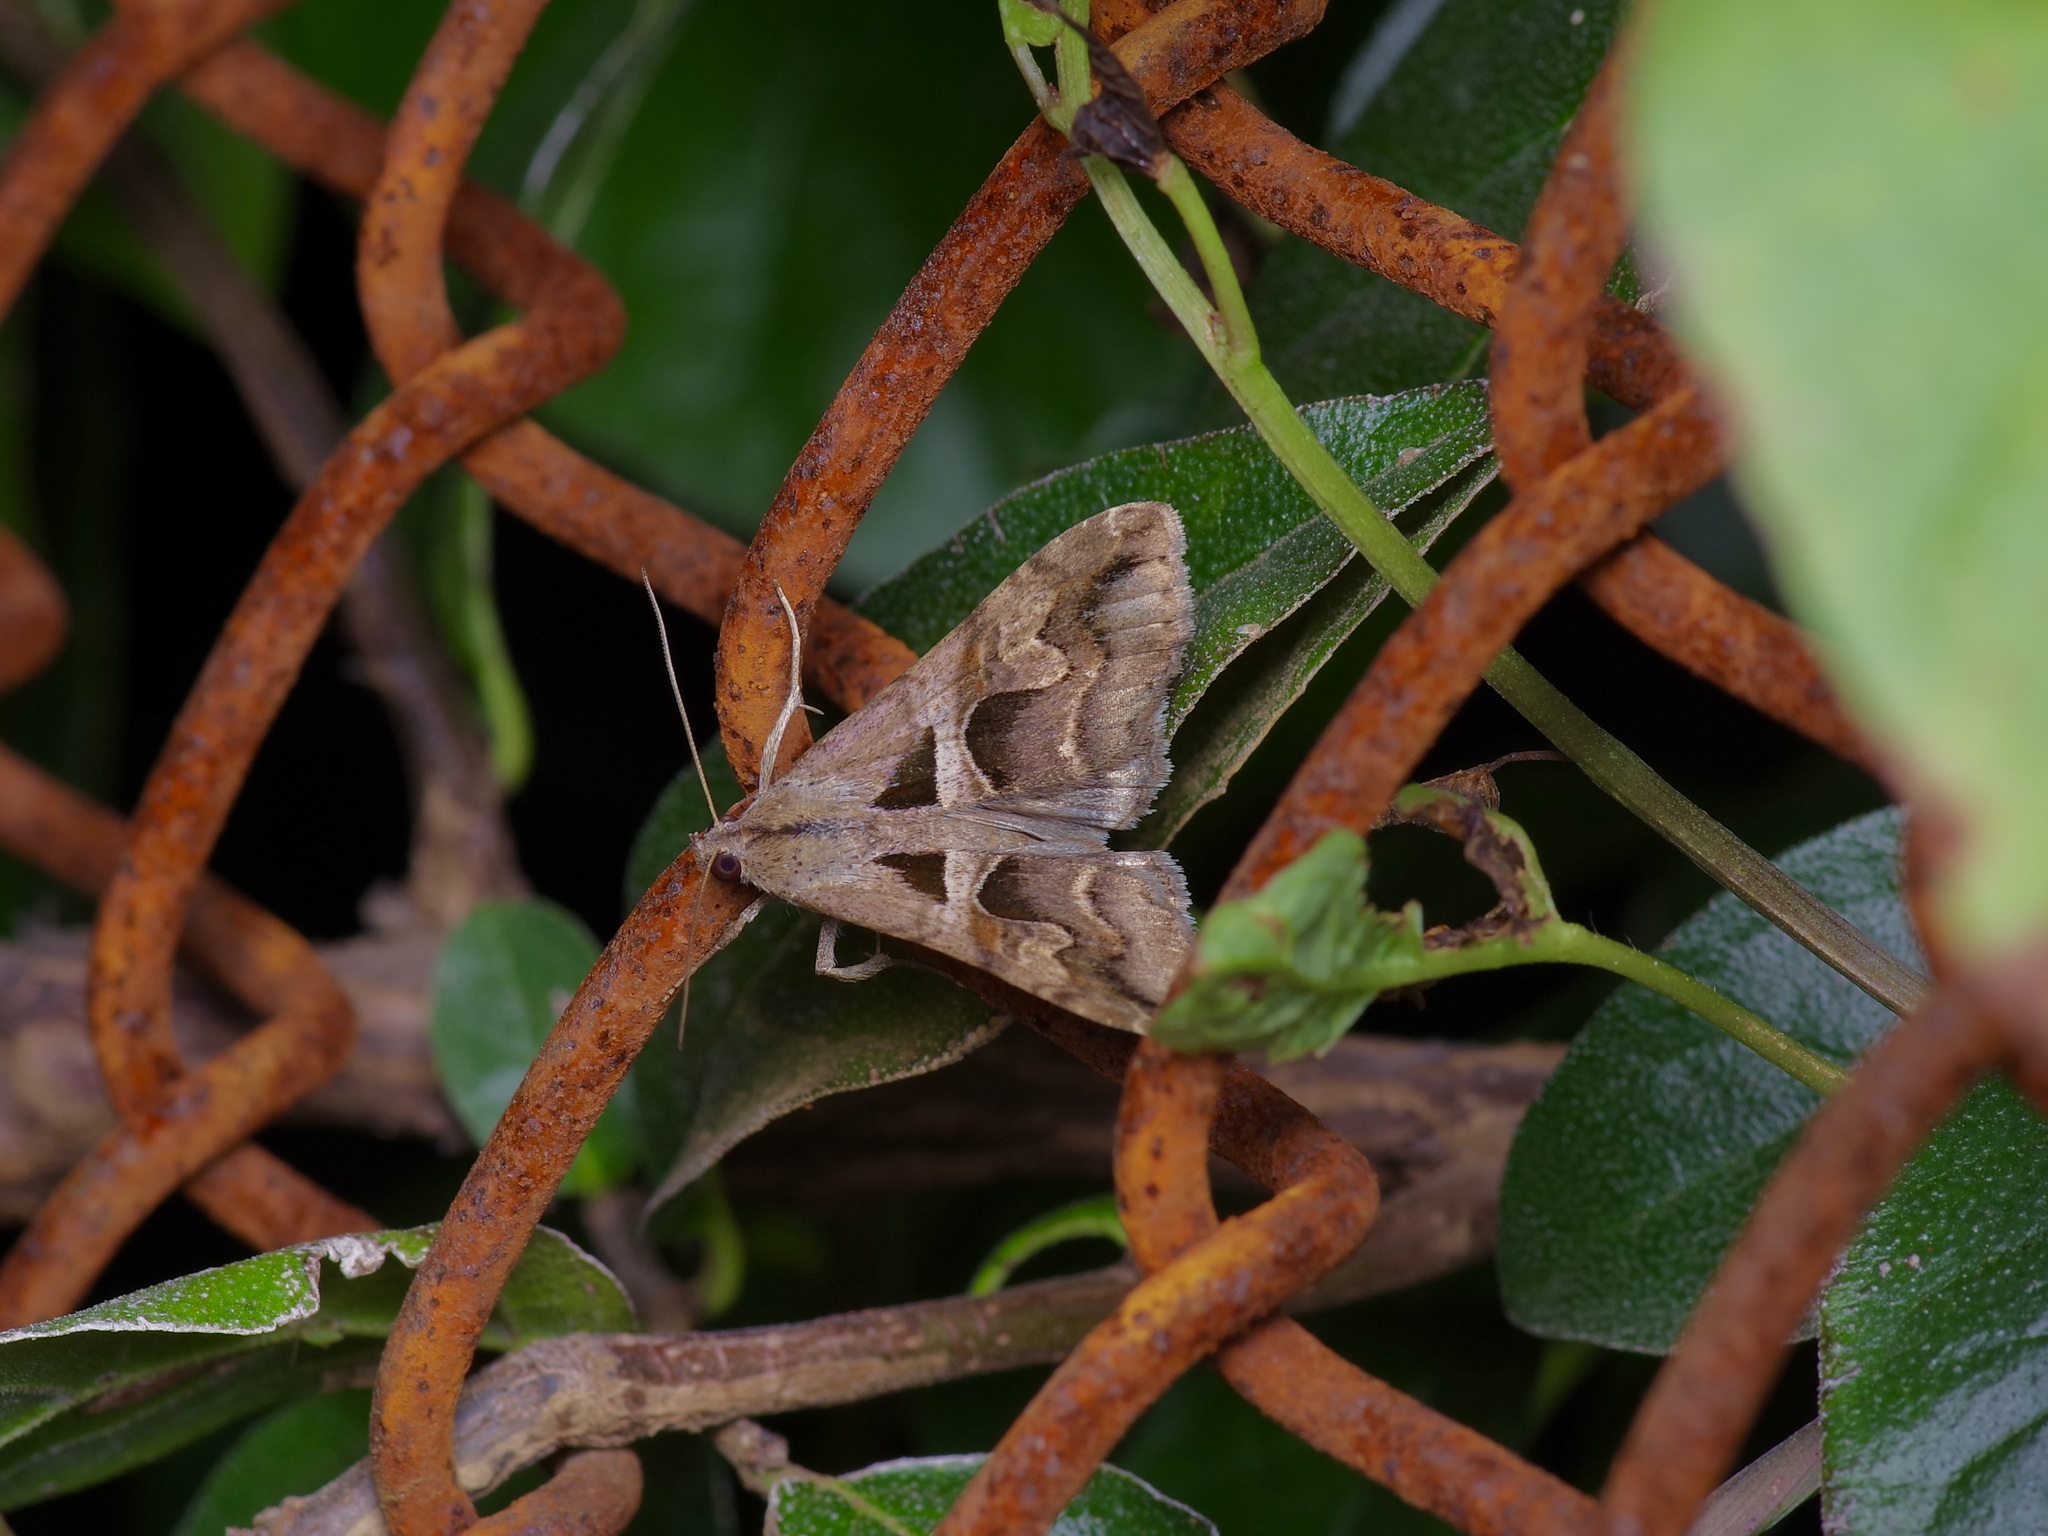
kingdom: Animalia
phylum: Arthropoda
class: Insecta
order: Lepidoptera
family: Erebidae
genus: Melipotis
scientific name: Melipotis cellaris
